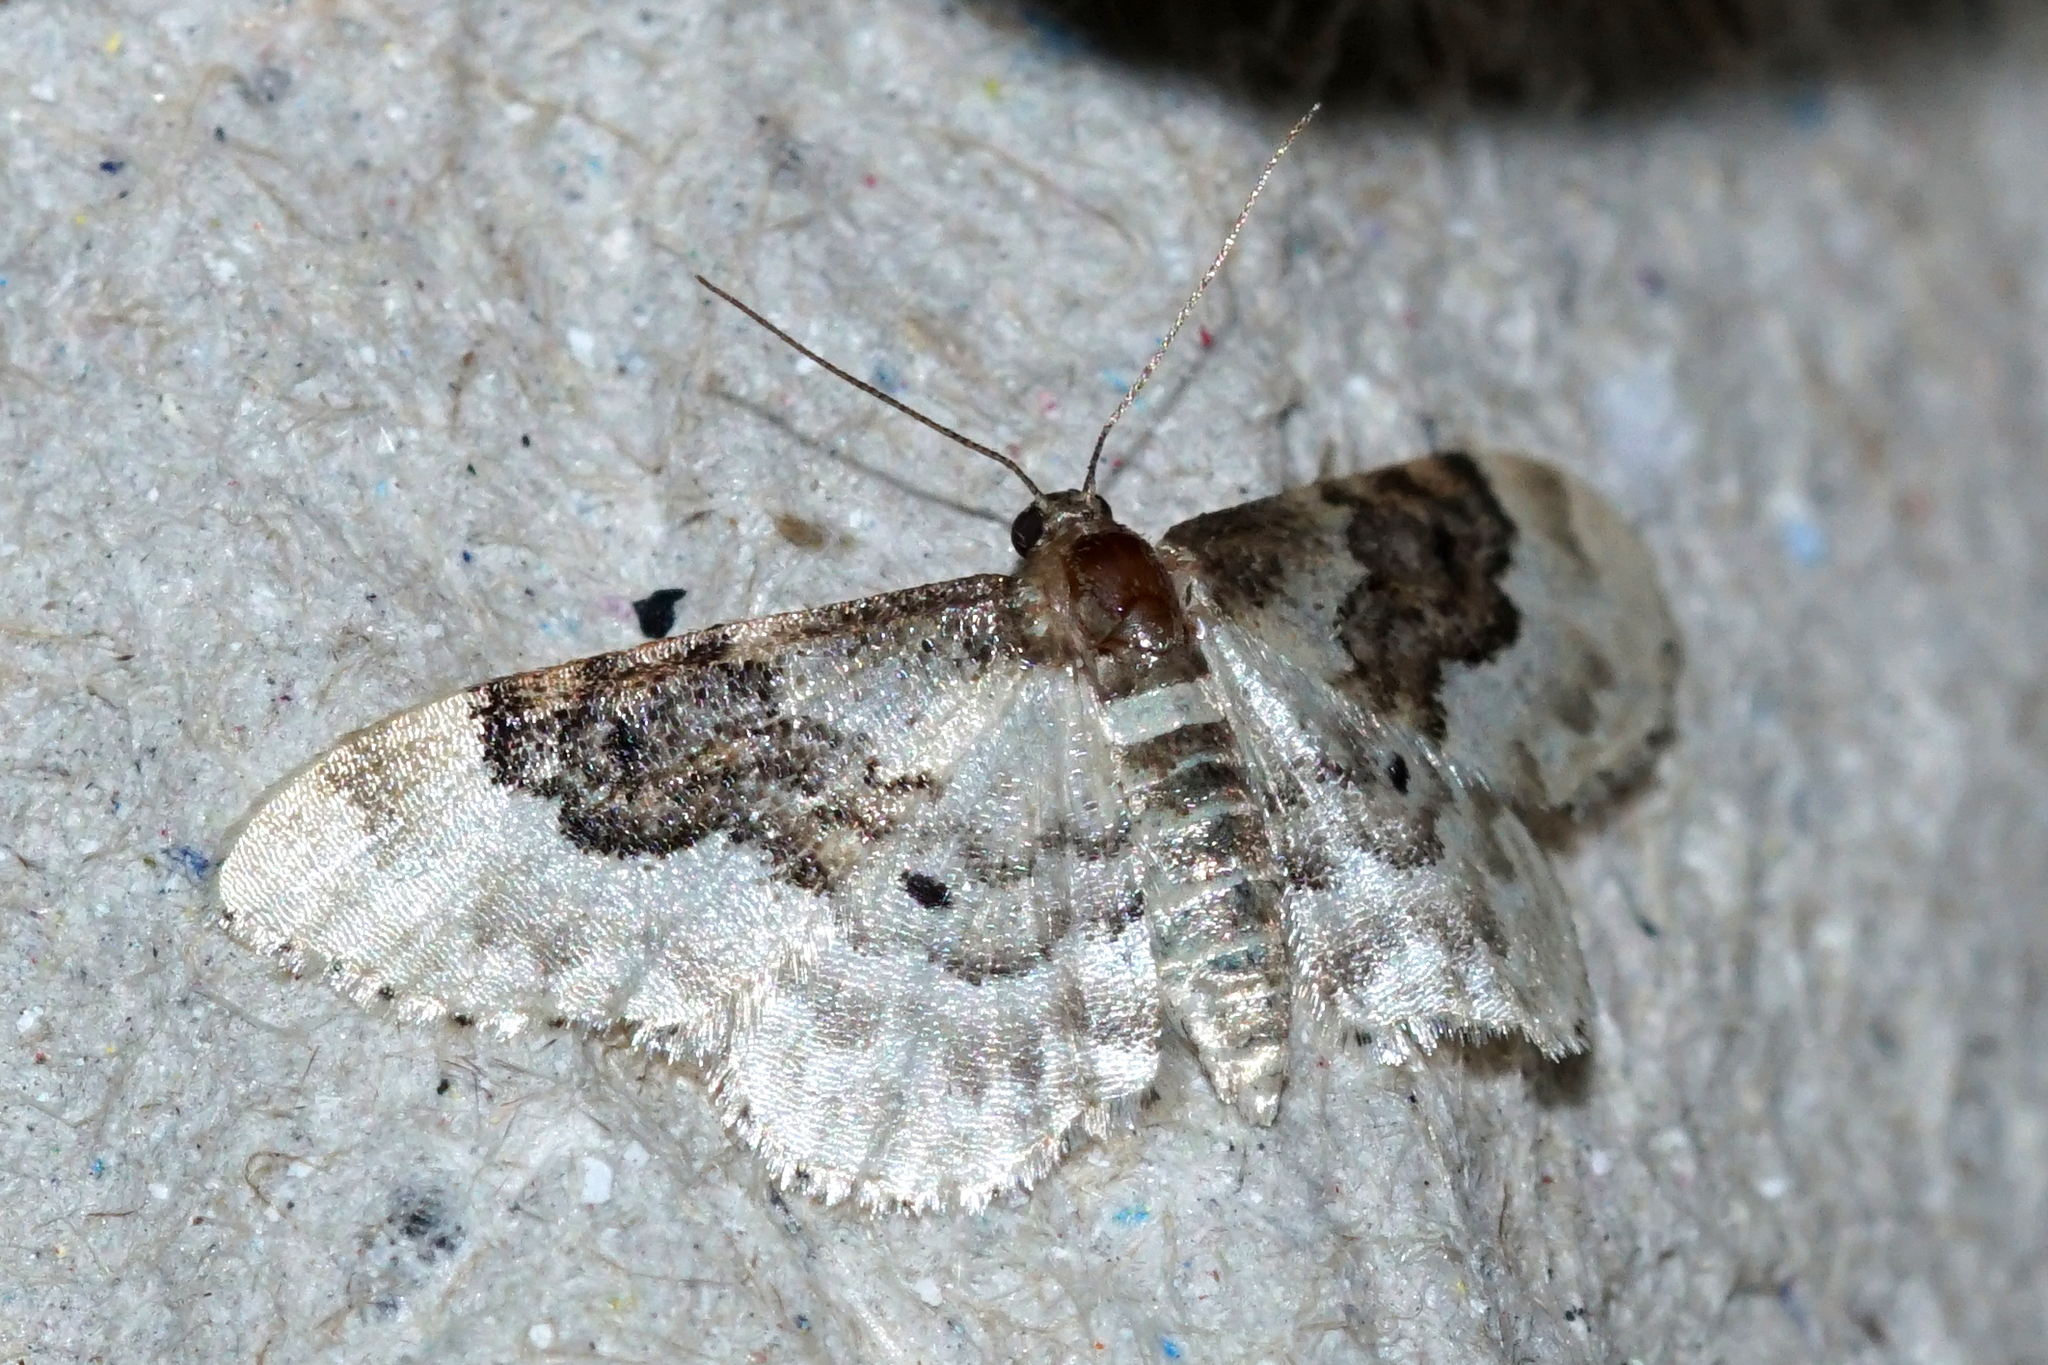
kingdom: Animalia
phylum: Arthropoda
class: Insecta
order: Lepidoptera
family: Geometridae
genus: Idaea
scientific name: Idaea rusticata
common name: Least carpet
